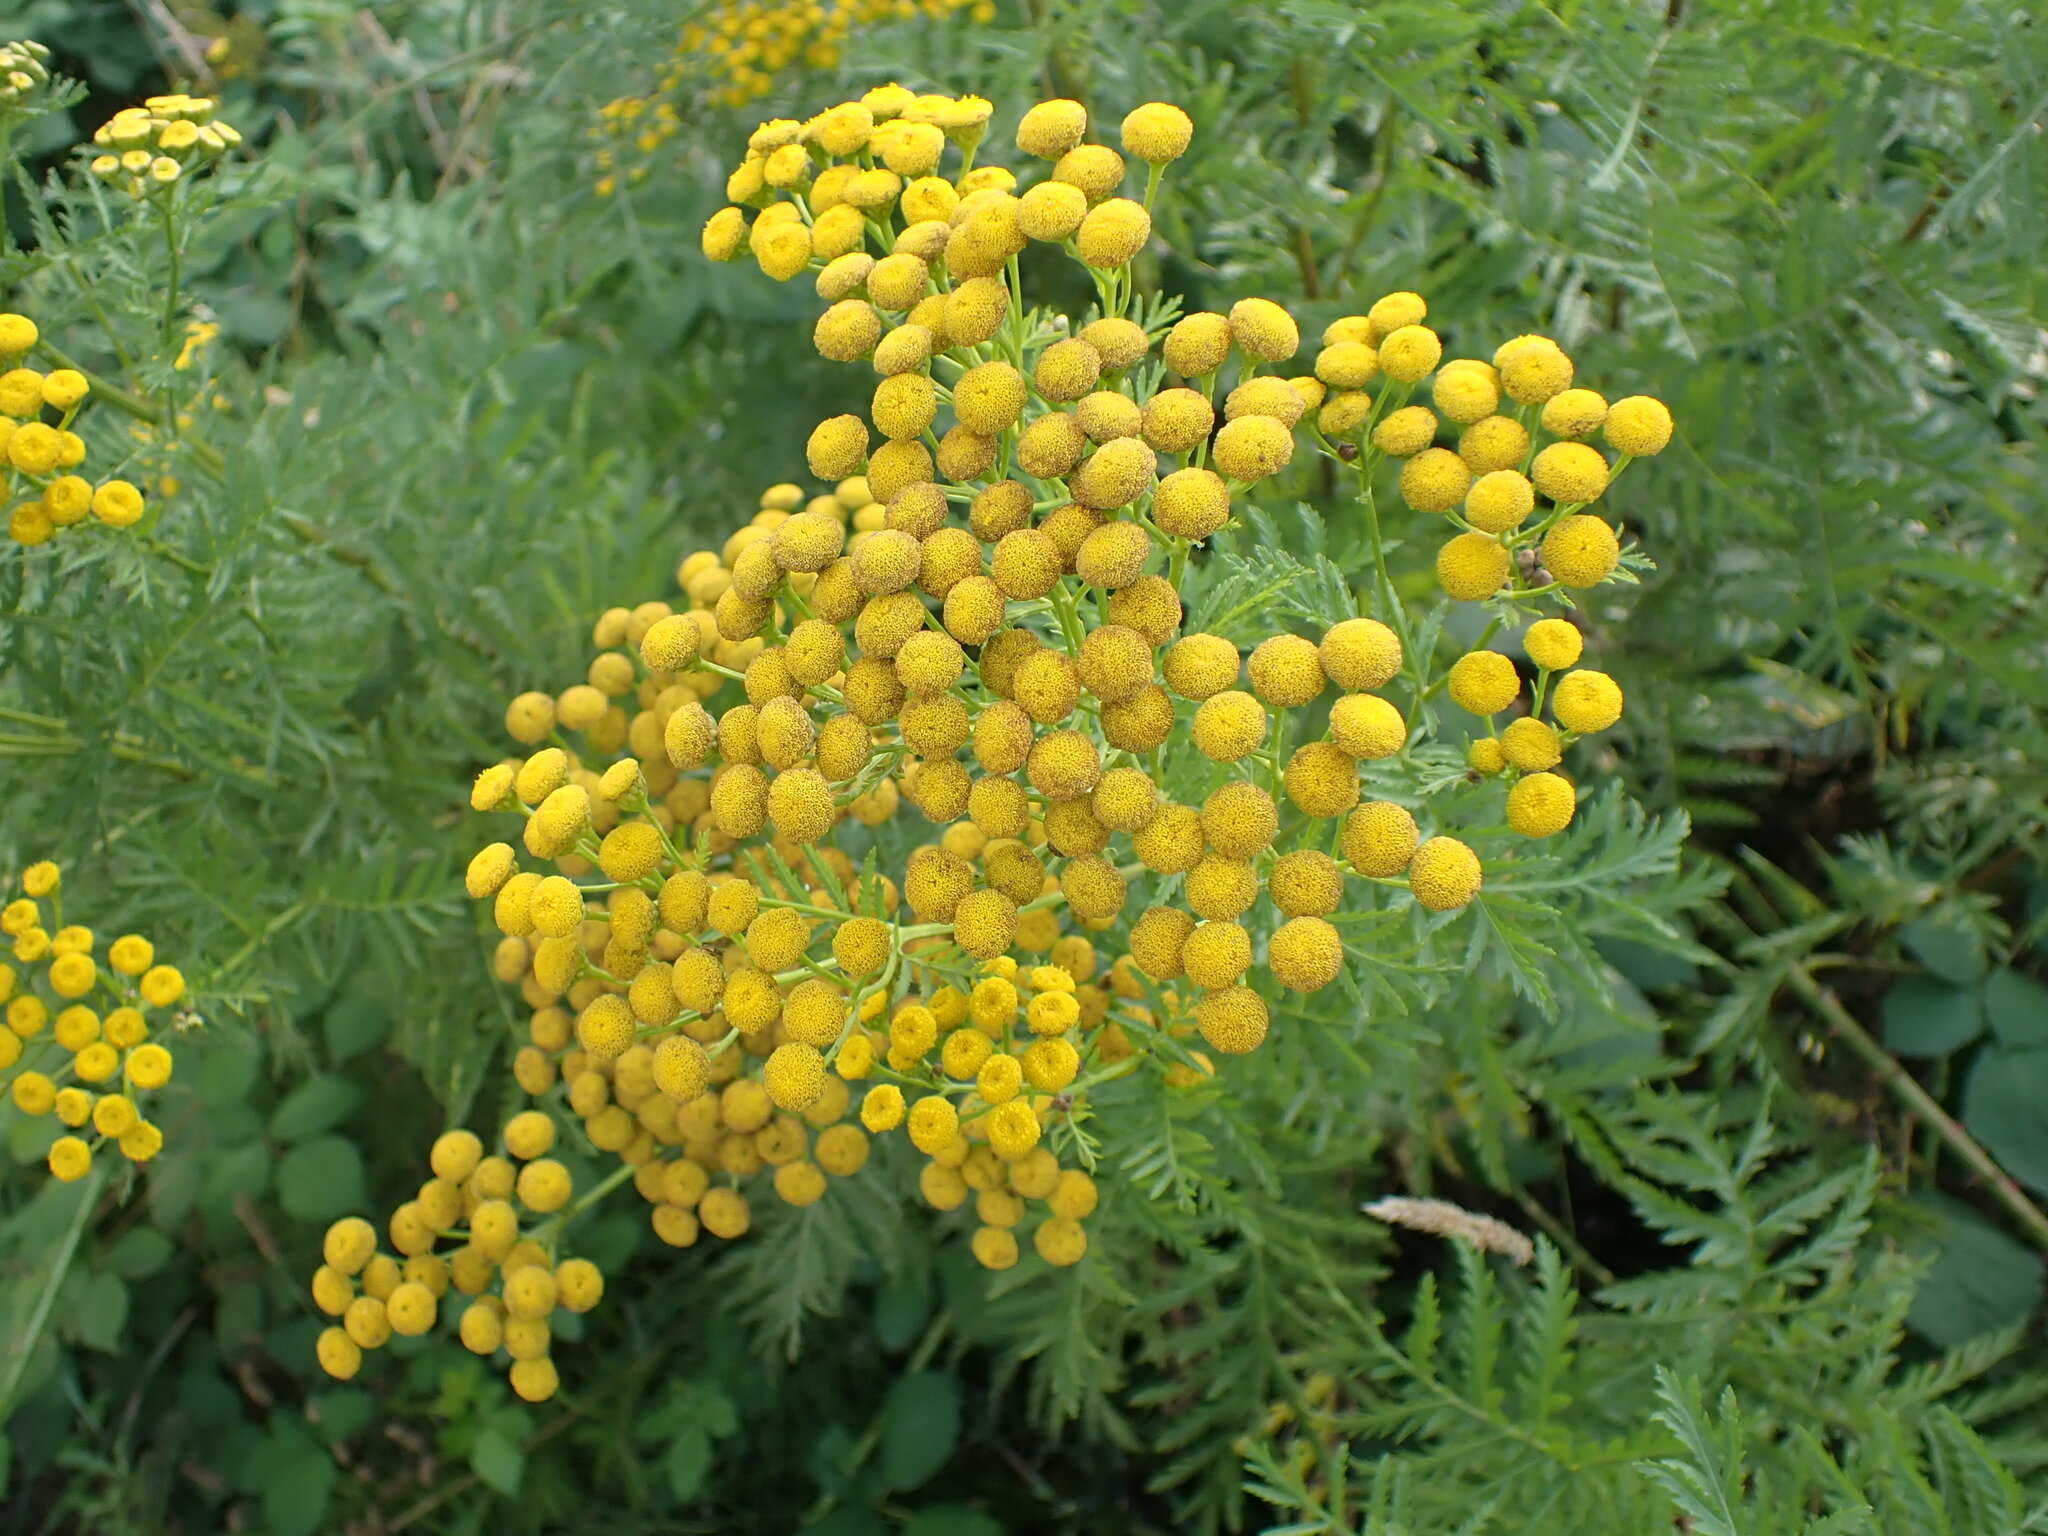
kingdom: Plantae
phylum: Tracheophyta
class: Magnoliopsida
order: Asterales
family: Asteraceae
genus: Tanacetum
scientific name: Tanacetum vulgare
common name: Common tansy
